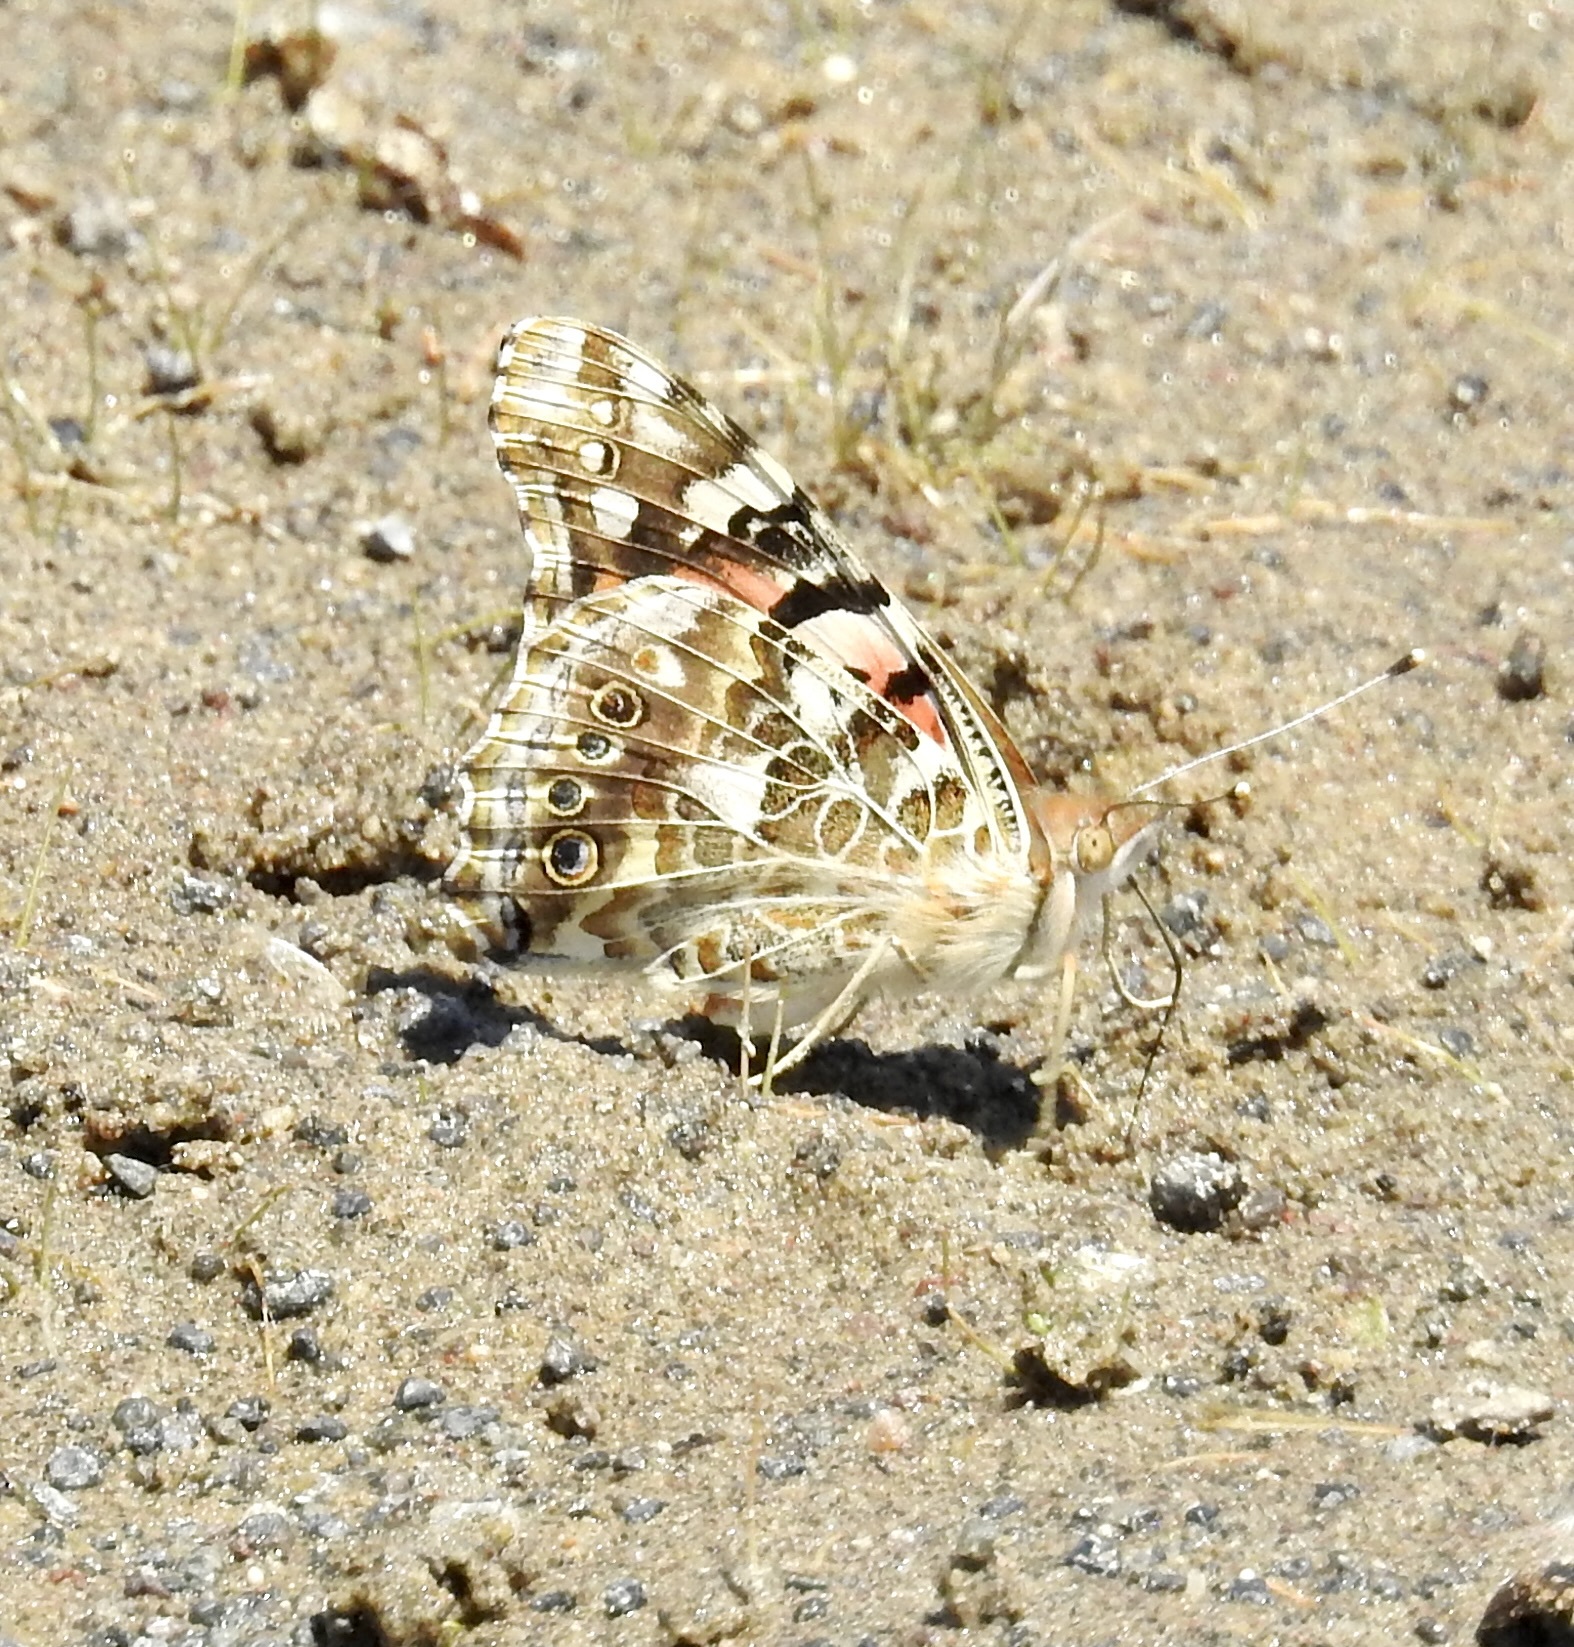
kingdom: Animalia
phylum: Arthropoda
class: Insecta
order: Lepidoptera
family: Nymphalidae
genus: Vanessa
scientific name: Vanessa cardui
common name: Painted lady
